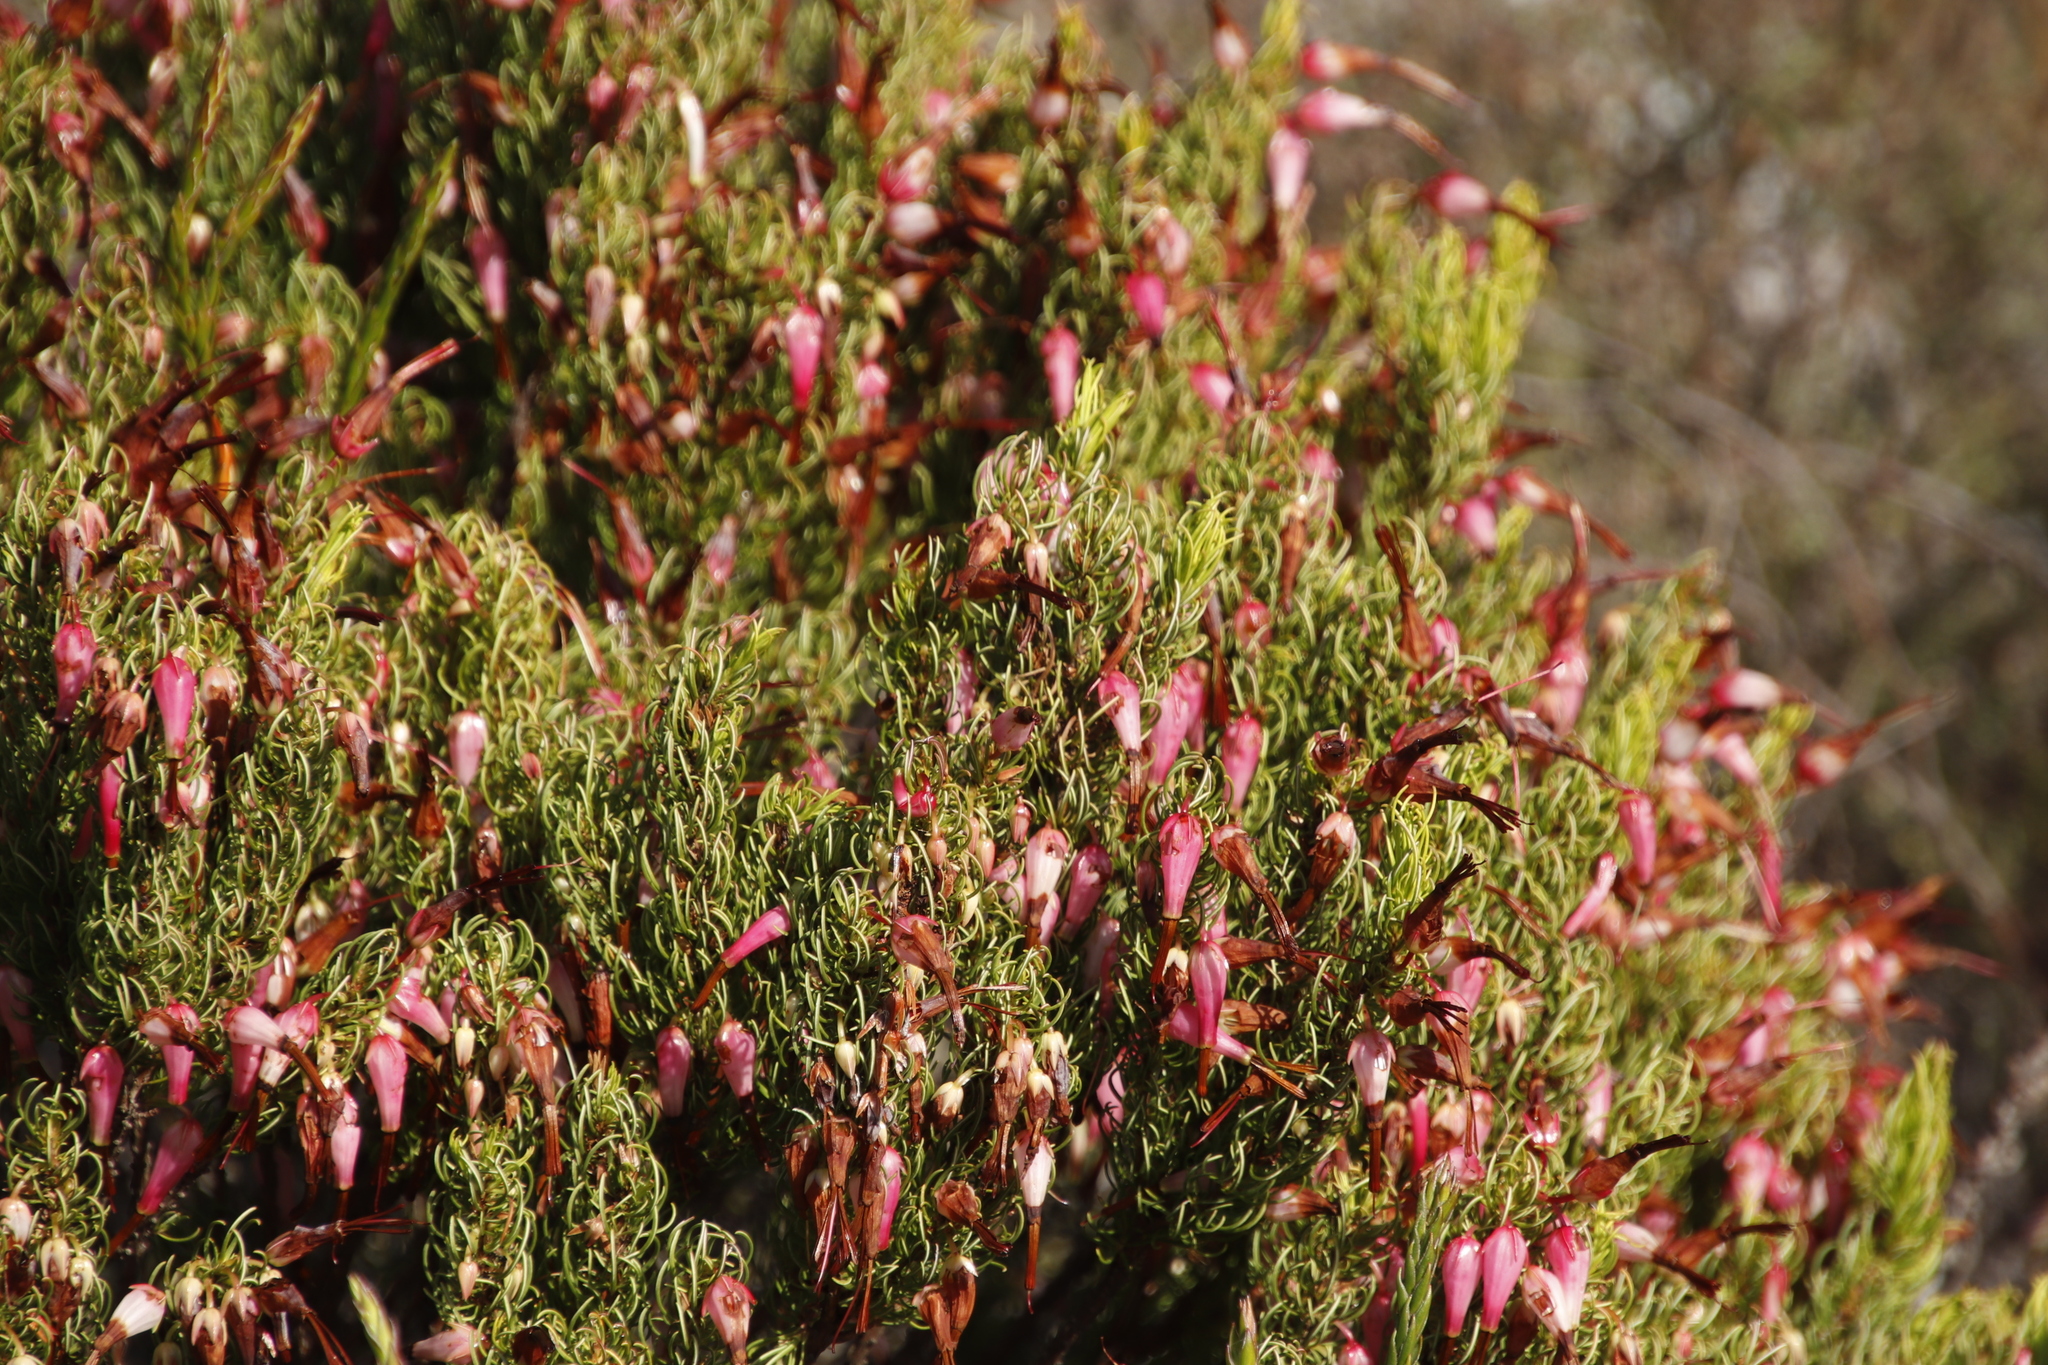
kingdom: Plantae
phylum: Tracheophyta
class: Magnoliopsida
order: Ericales
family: Ericaceae
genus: Erica
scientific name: Erica plukenetii
